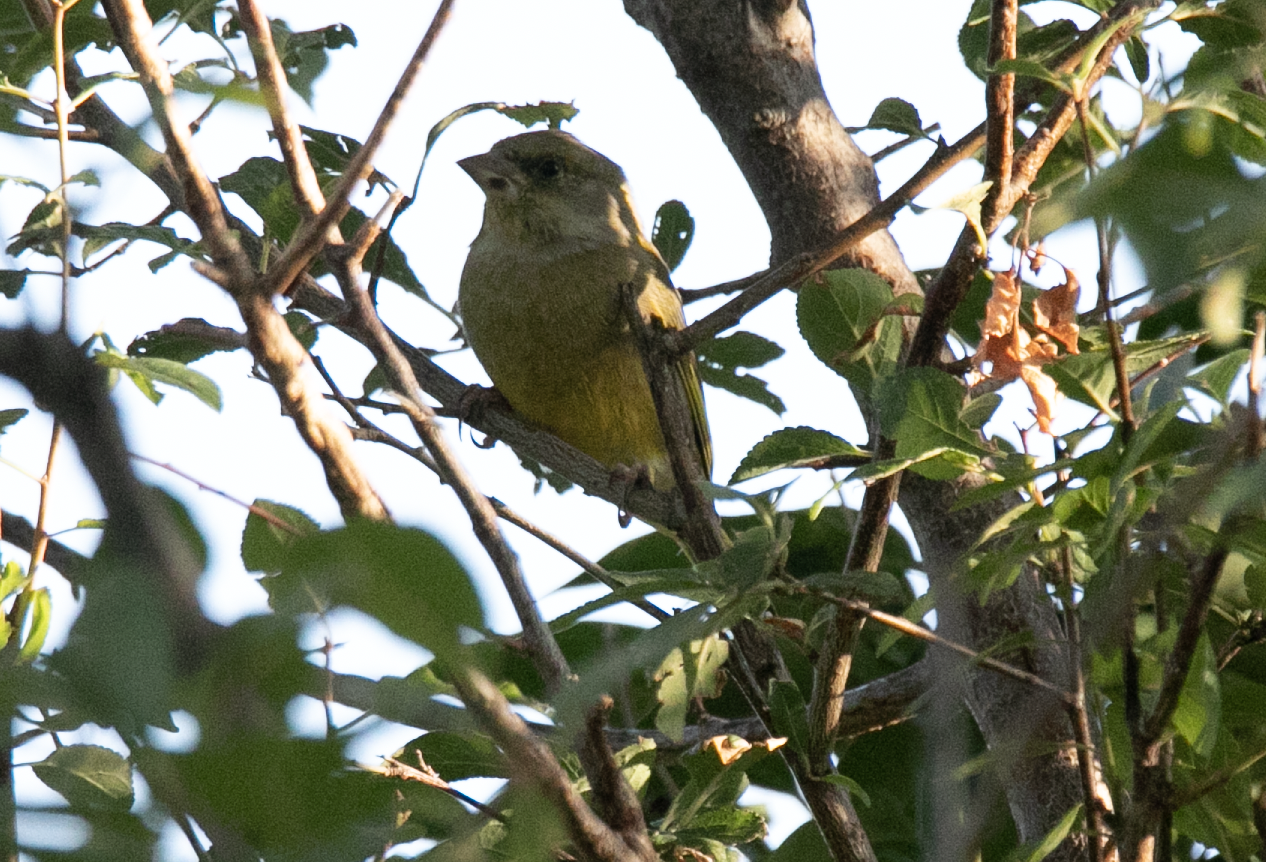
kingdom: Plantae
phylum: Tracheophyta
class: Liliopsida
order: Poales
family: Poaceae
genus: Chloris
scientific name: Chloris chloris
